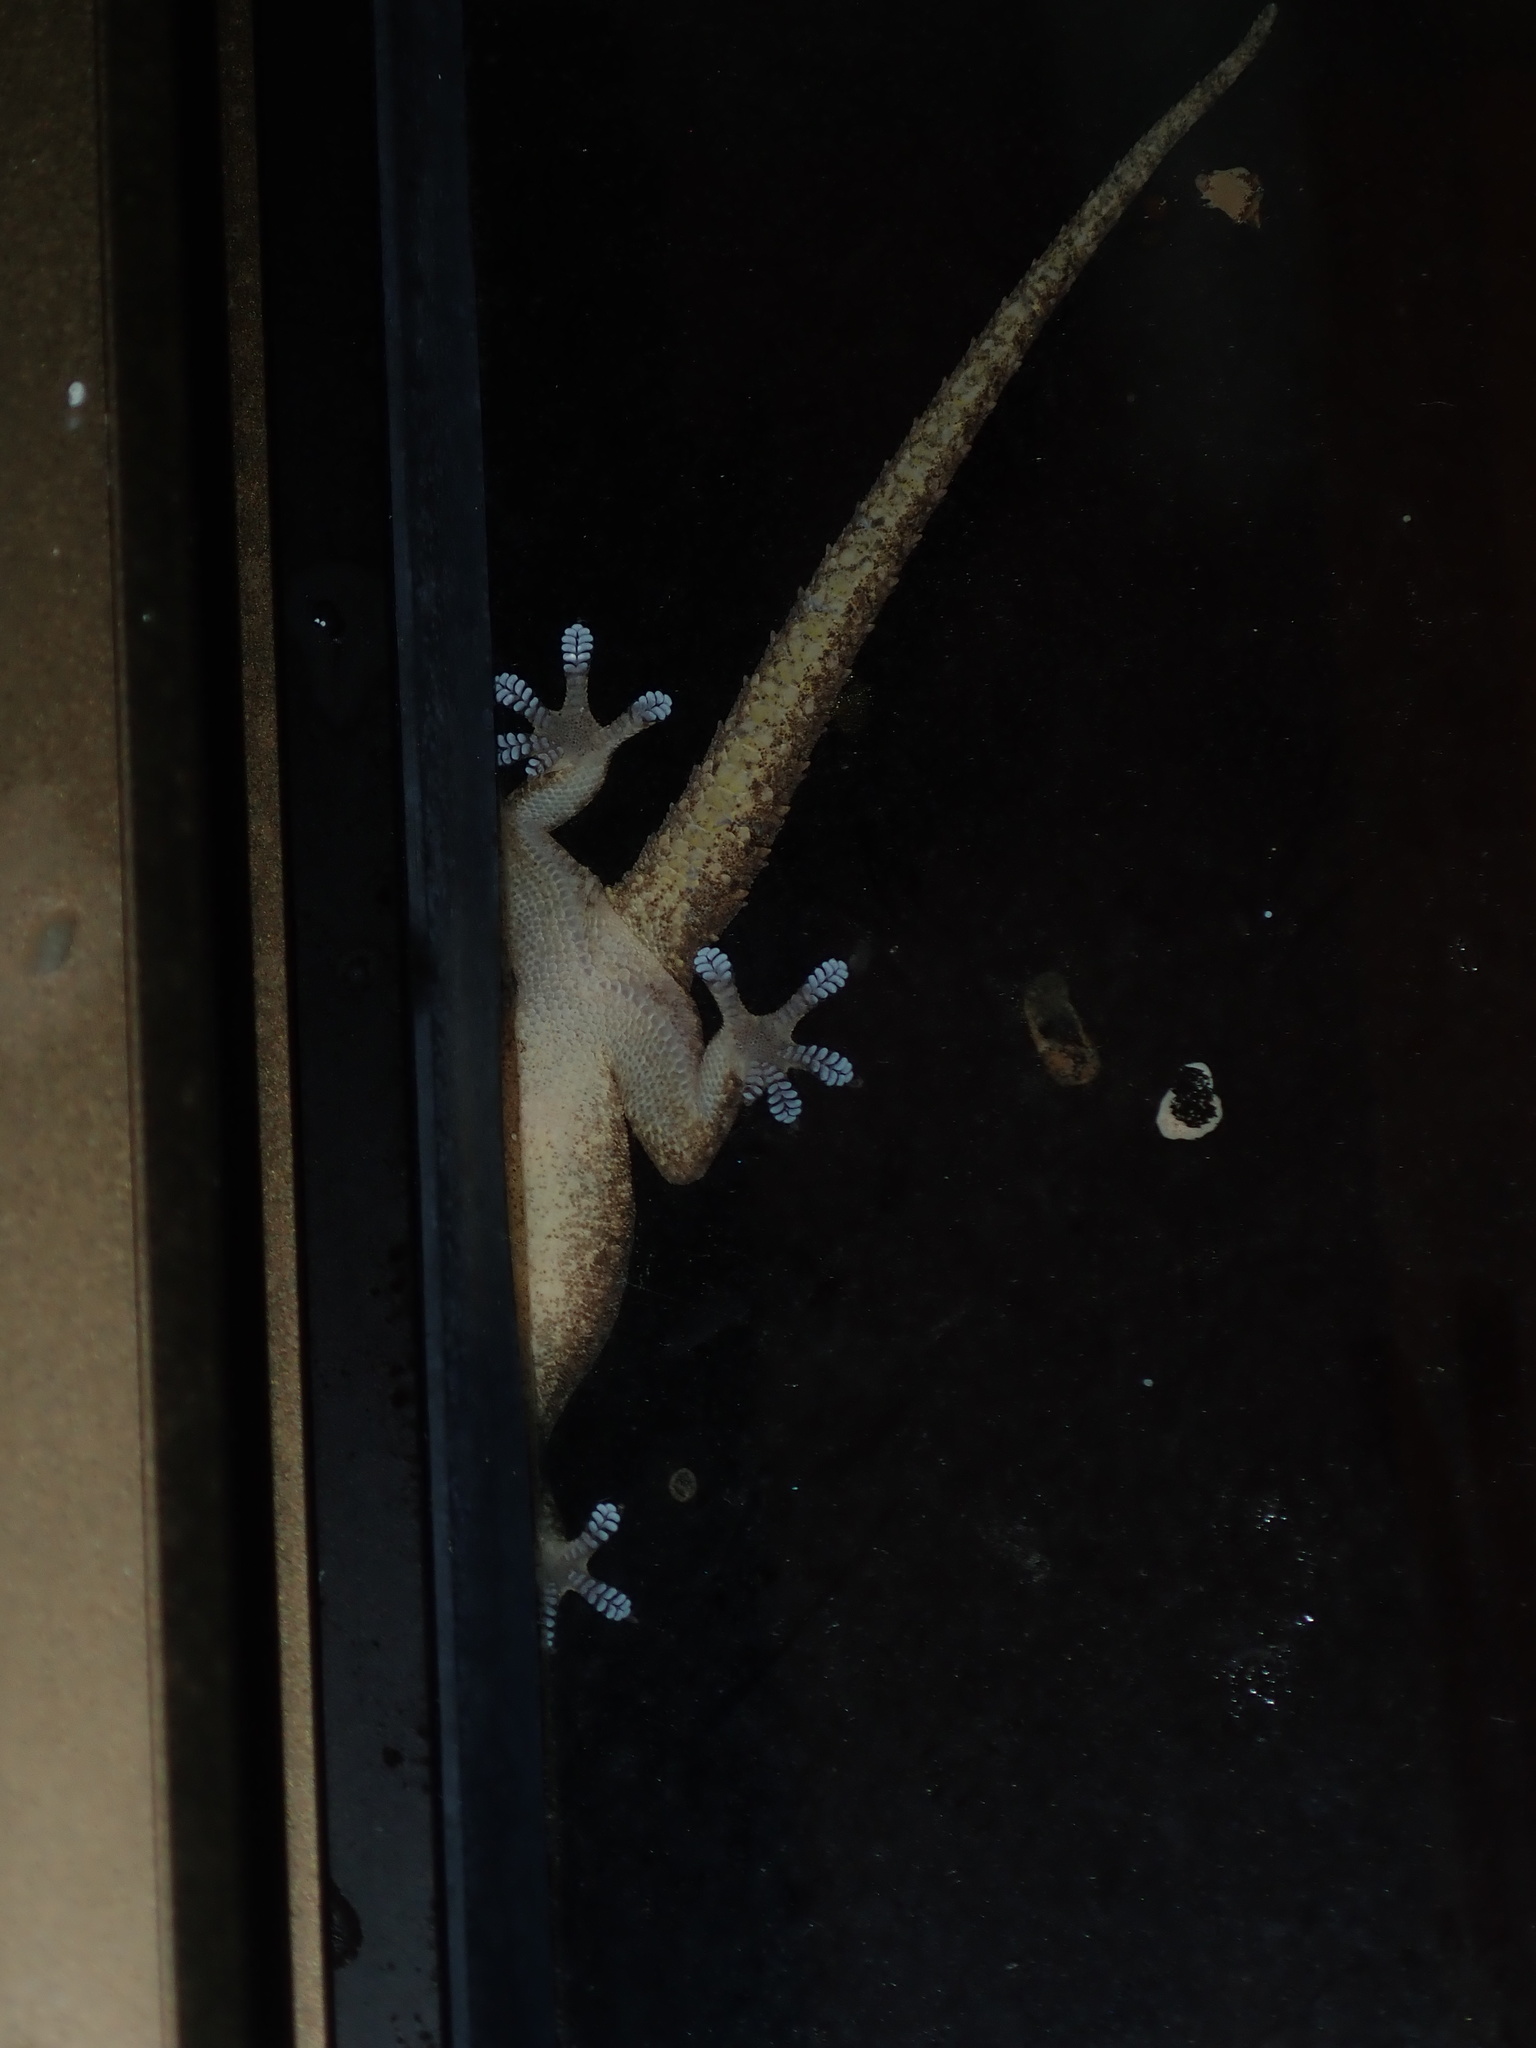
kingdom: Animalia
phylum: Chordata
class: Squamata
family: Gekkonidae
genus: Hemidactylus
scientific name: Hemidactylus frenatus
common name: Common house gecko
